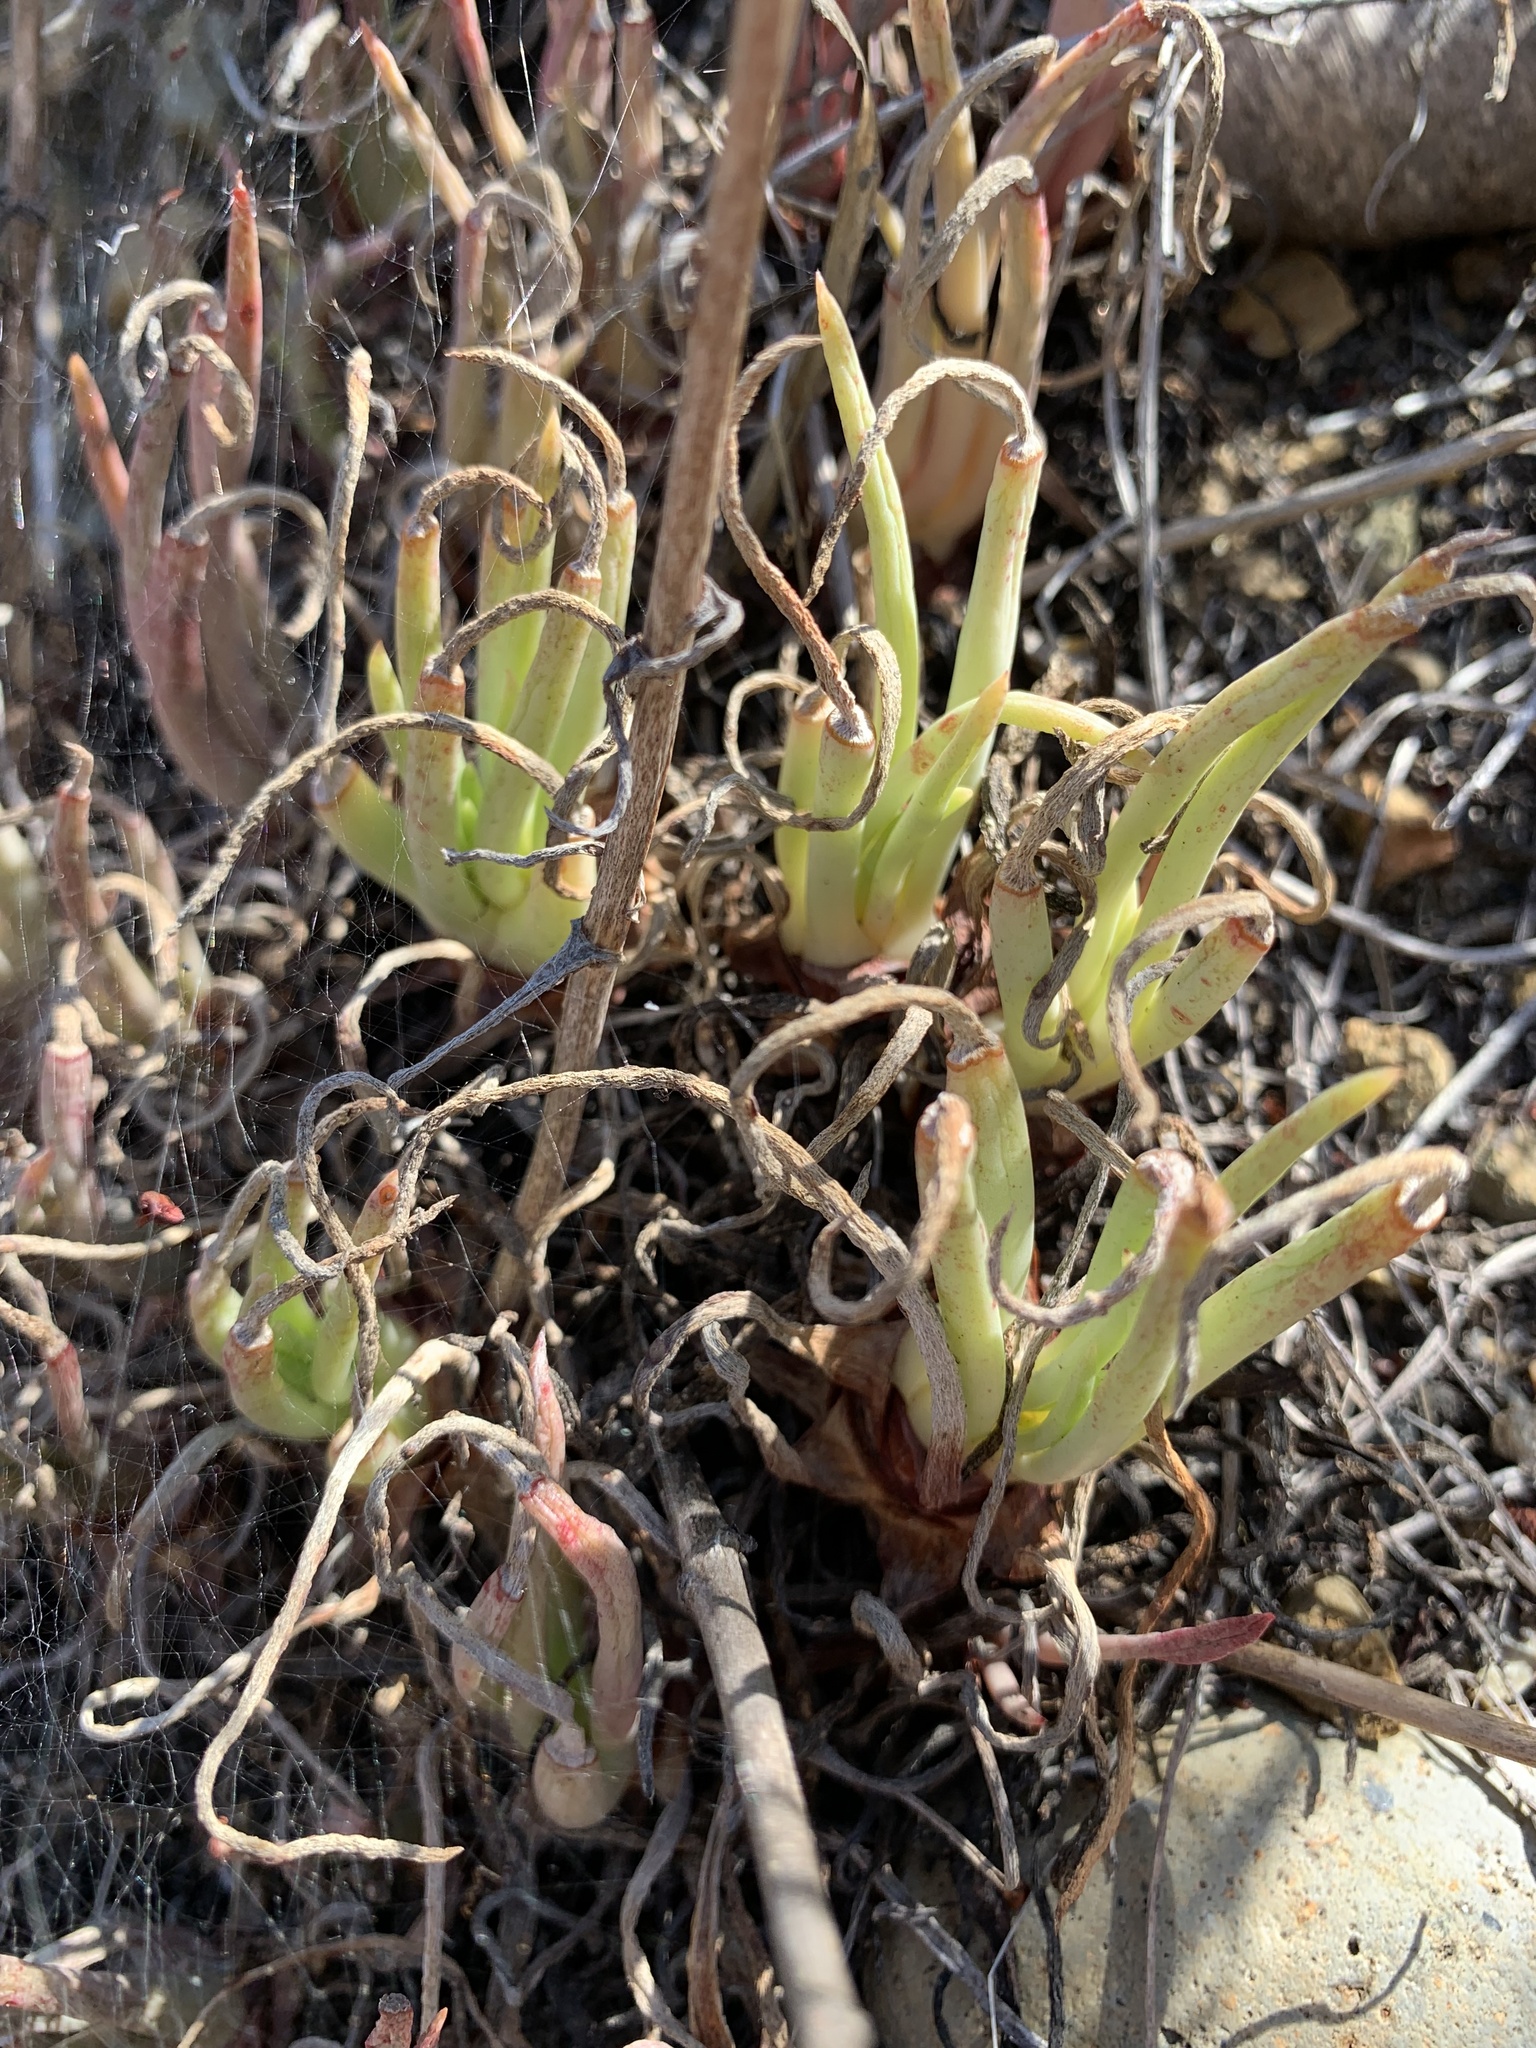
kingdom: Plantae
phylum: Tracheophyta
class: Magnoliopsida
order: Saxifragales
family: Crassulaceae
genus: Dudleya
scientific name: Dudleya edulis
